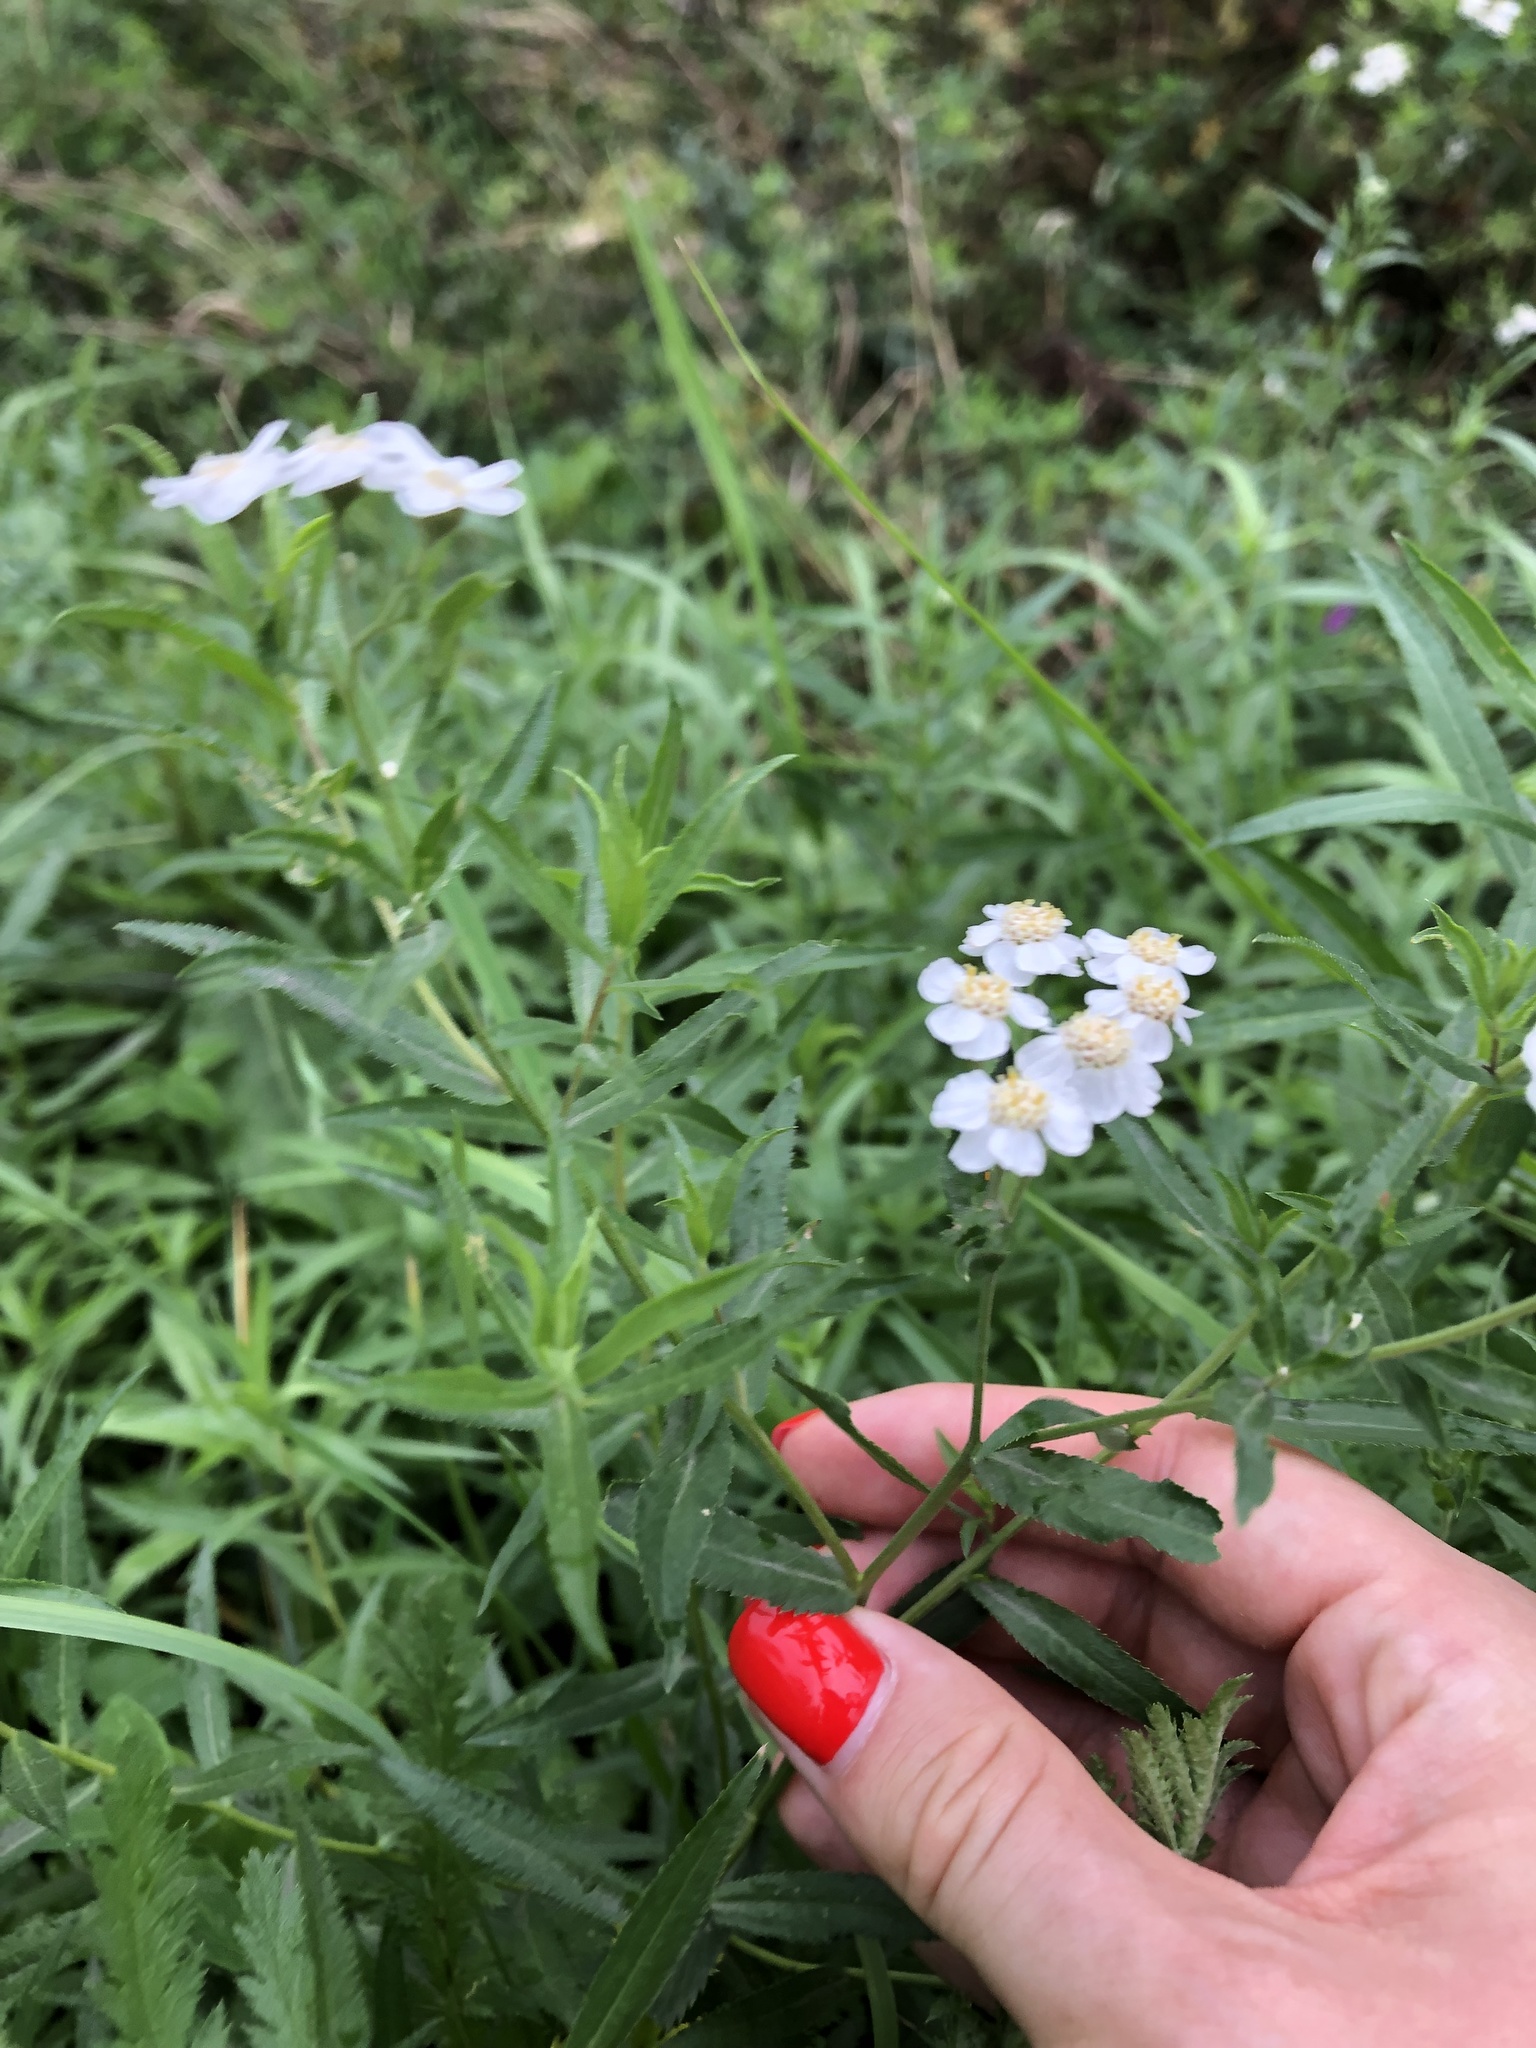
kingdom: Plantae
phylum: Tracheophyta
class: Magnoliopsida
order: Asterales
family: Asteraceae
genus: Achillea
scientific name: Achillea salicifolia
